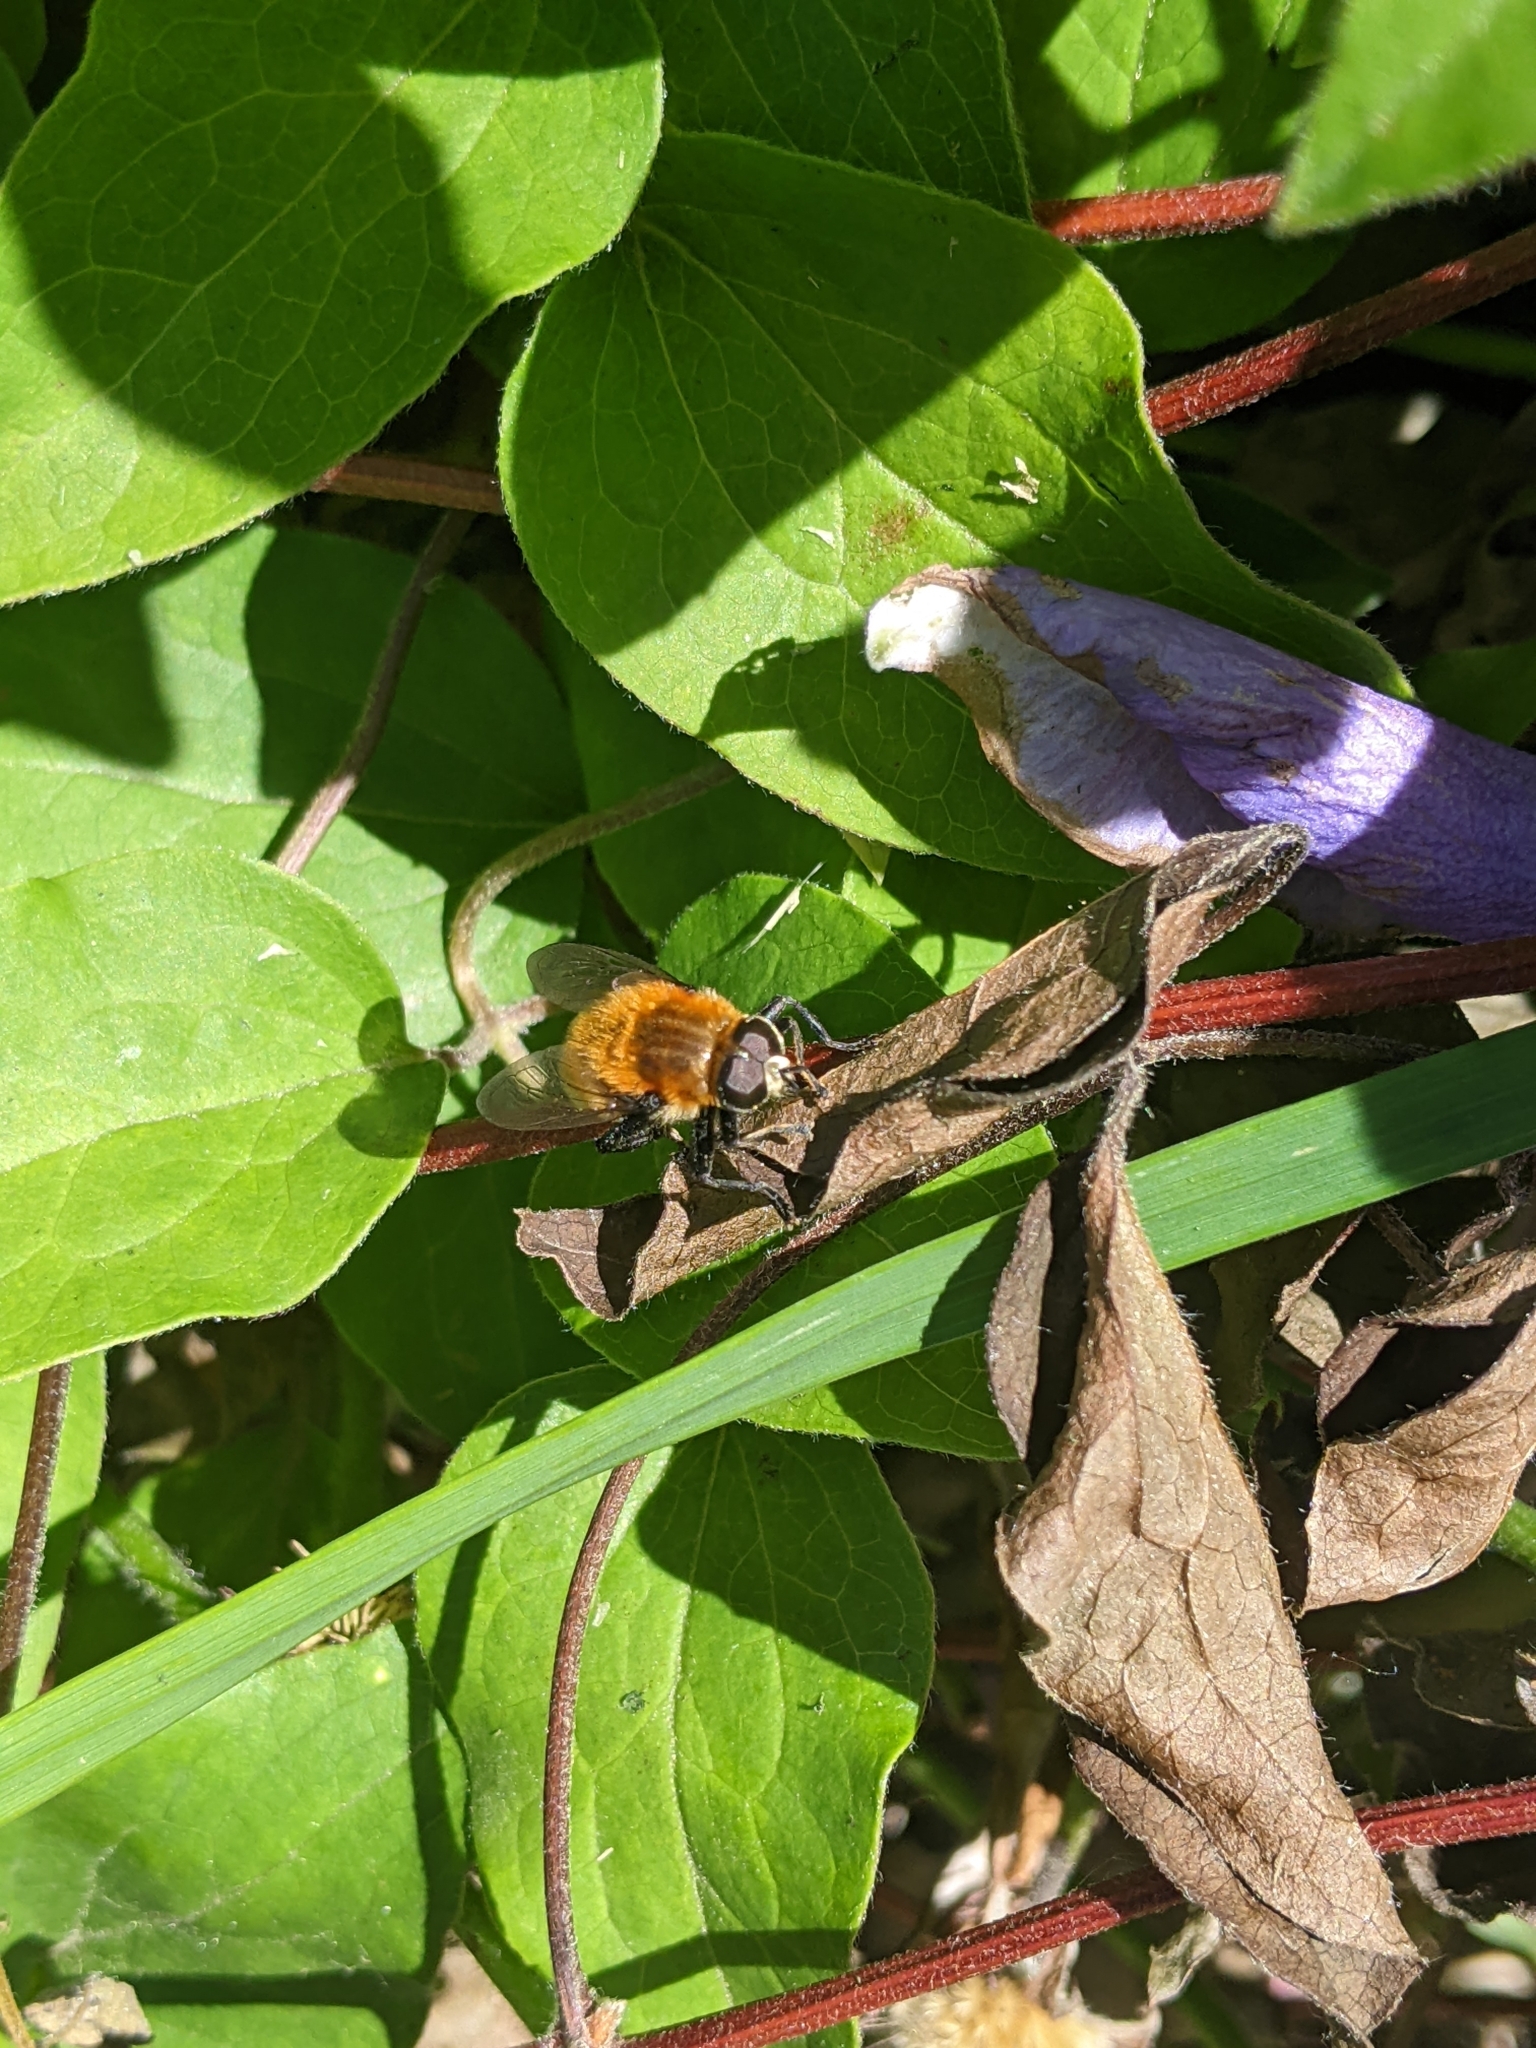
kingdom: Animalia
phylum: Arthropoda
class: Insecta
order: Diptera
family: Syrphidae
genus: Merodon
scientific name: Merodon equestris
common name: Greater bulb-fly
